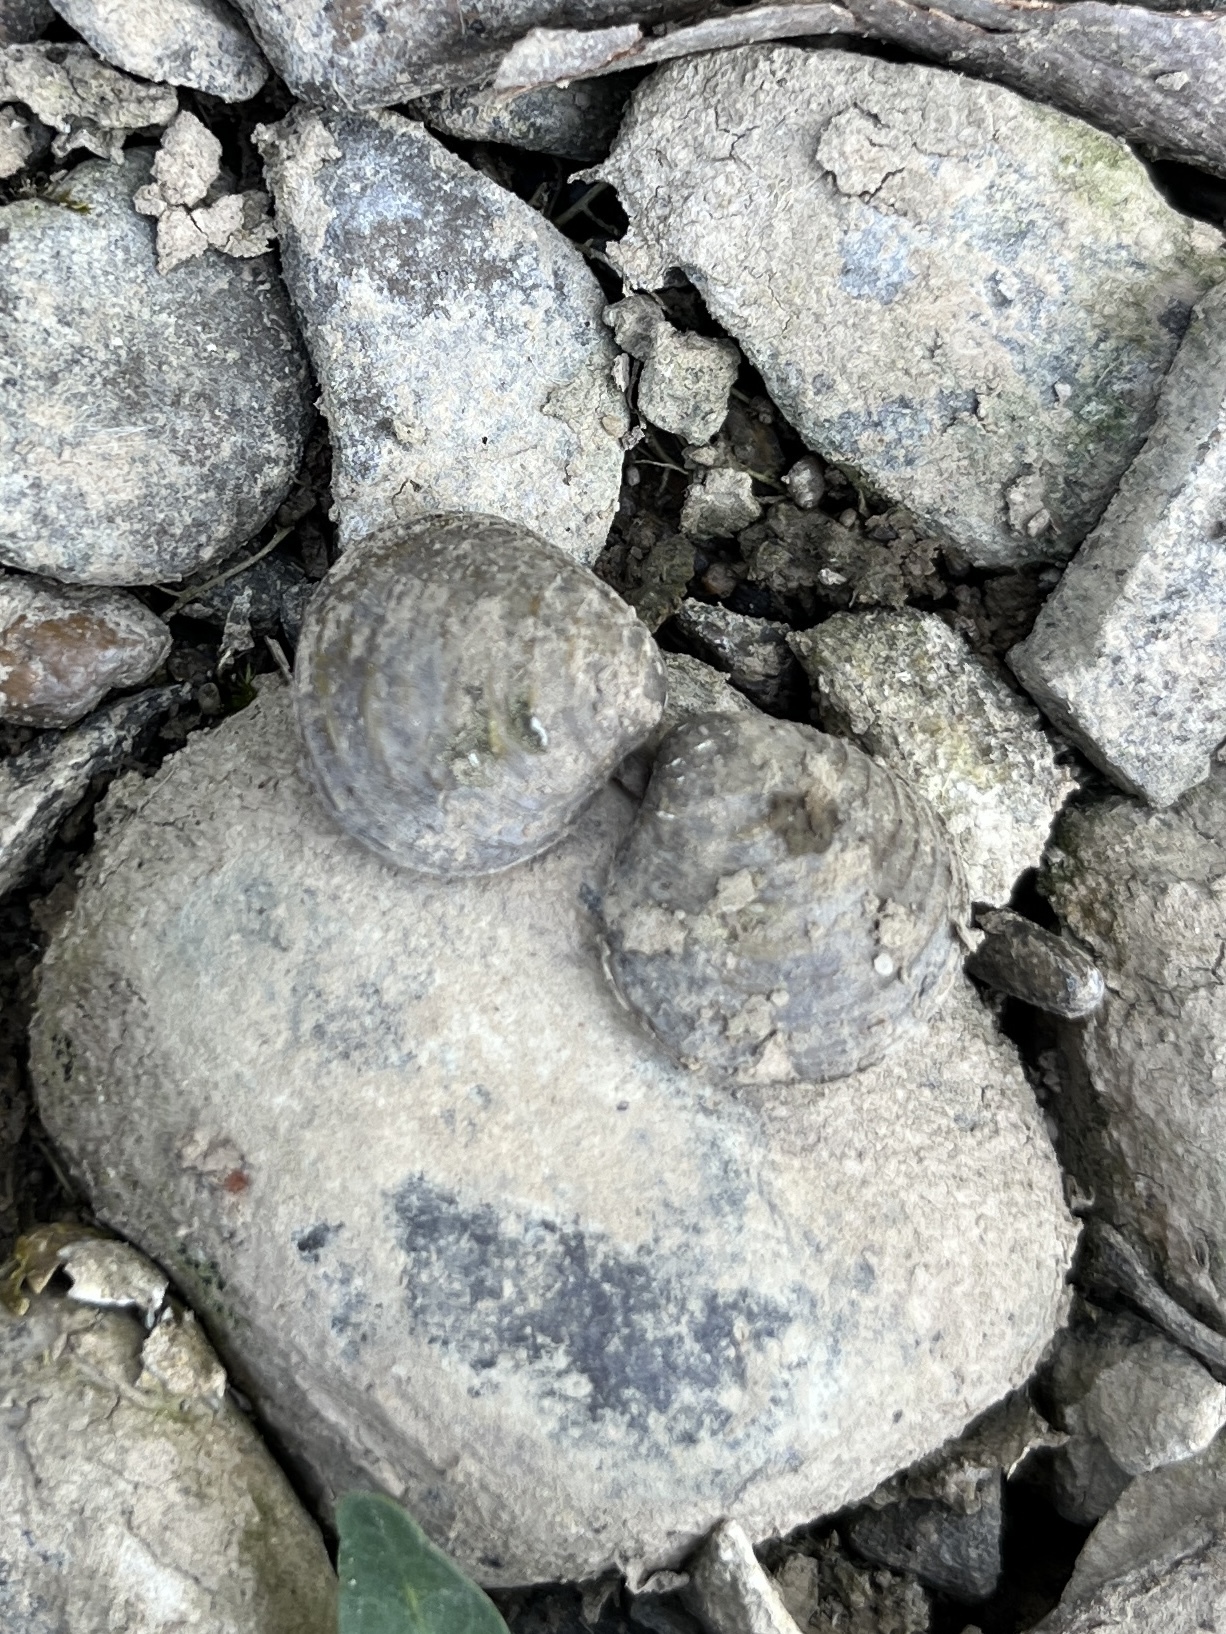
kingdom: Animalia
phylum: Mollusca
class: Bivalvia
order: Venerida
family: Cyrenidae
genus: Corbicula
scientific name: Corbicula fluminea
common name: Asian clam
